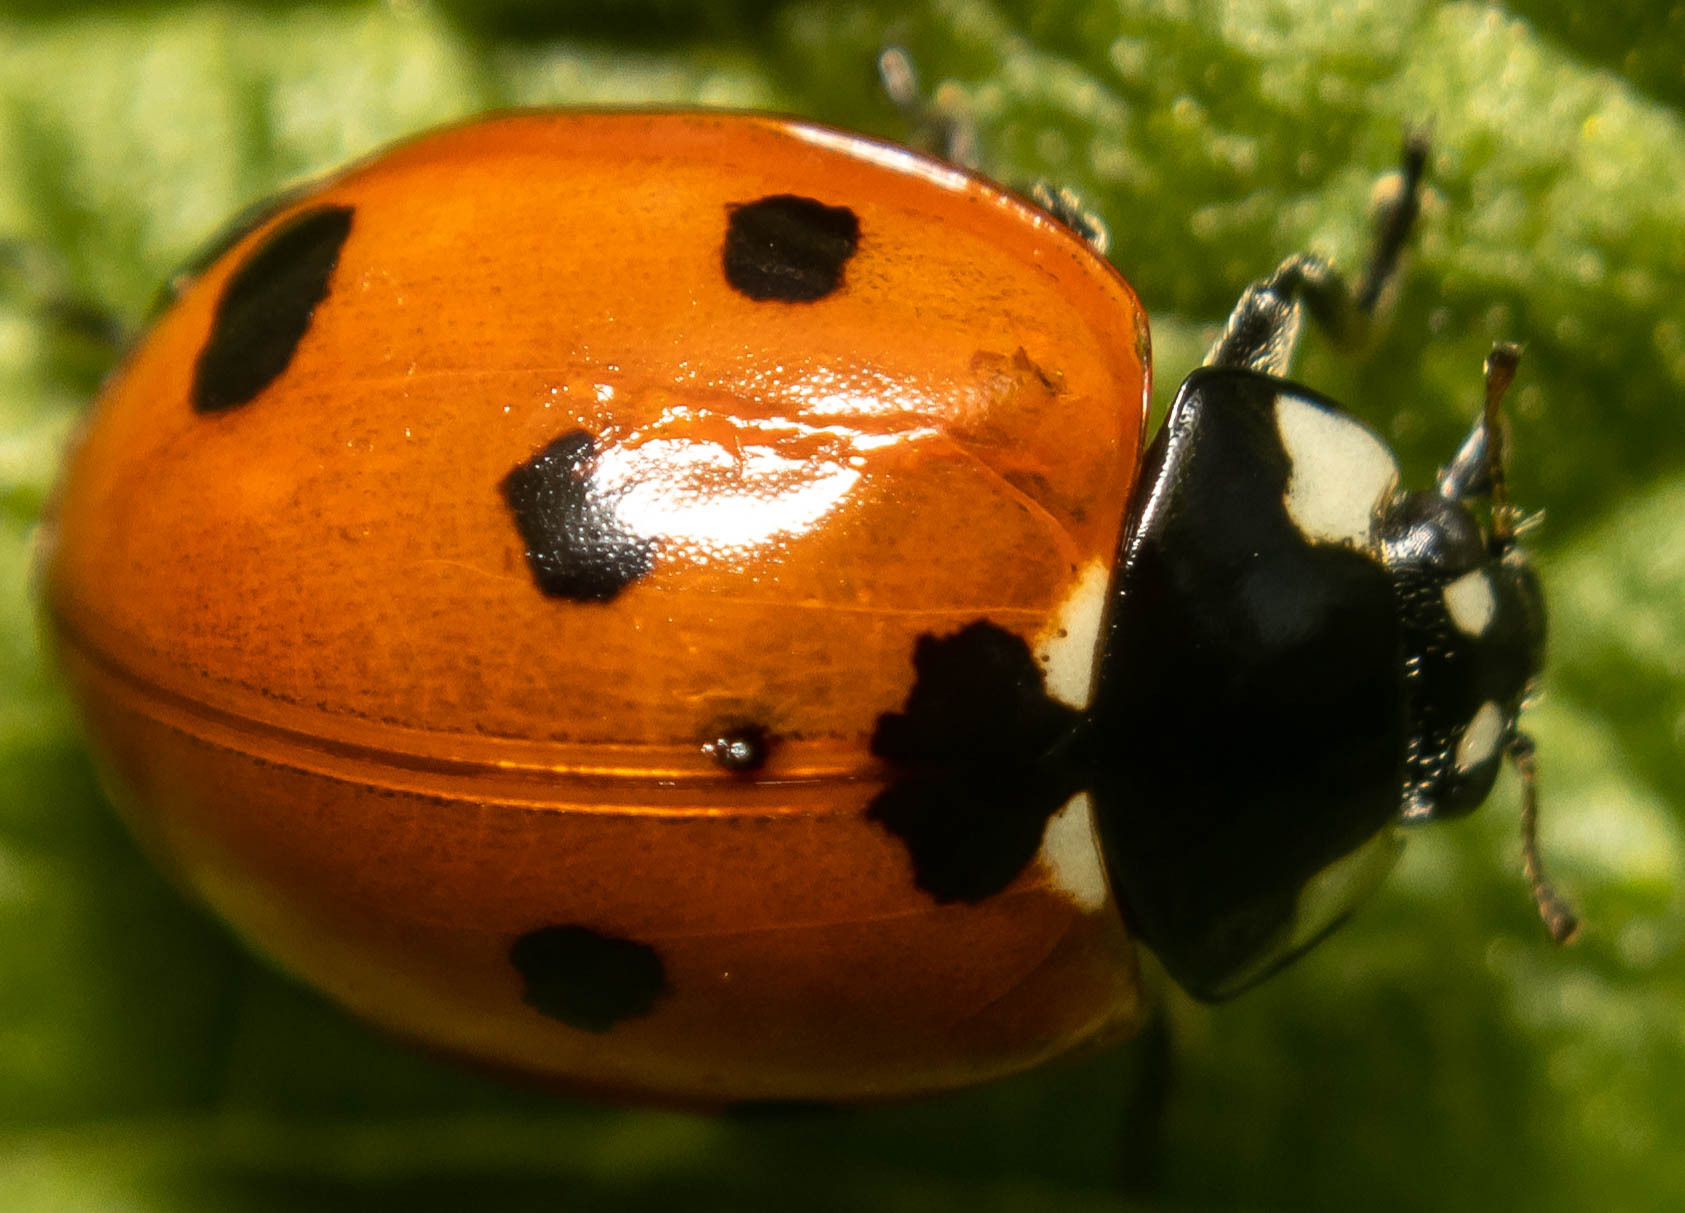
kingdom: Animalia
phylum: Arthropoda
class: Insecta
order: Coleoptera
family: Coccinellidae
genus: Coccinella
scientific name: Coccinella septempunctata
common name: Sevenspotted lady beetle
